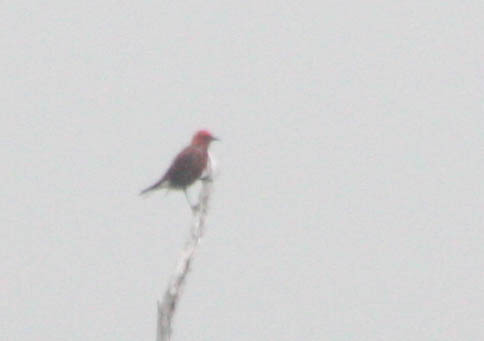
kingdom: Animalia
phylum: Chordata
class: Aves
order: Passeriformes
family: Fringillidae
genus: Himatione
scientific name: Himatione sanguinea
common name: Apapane
